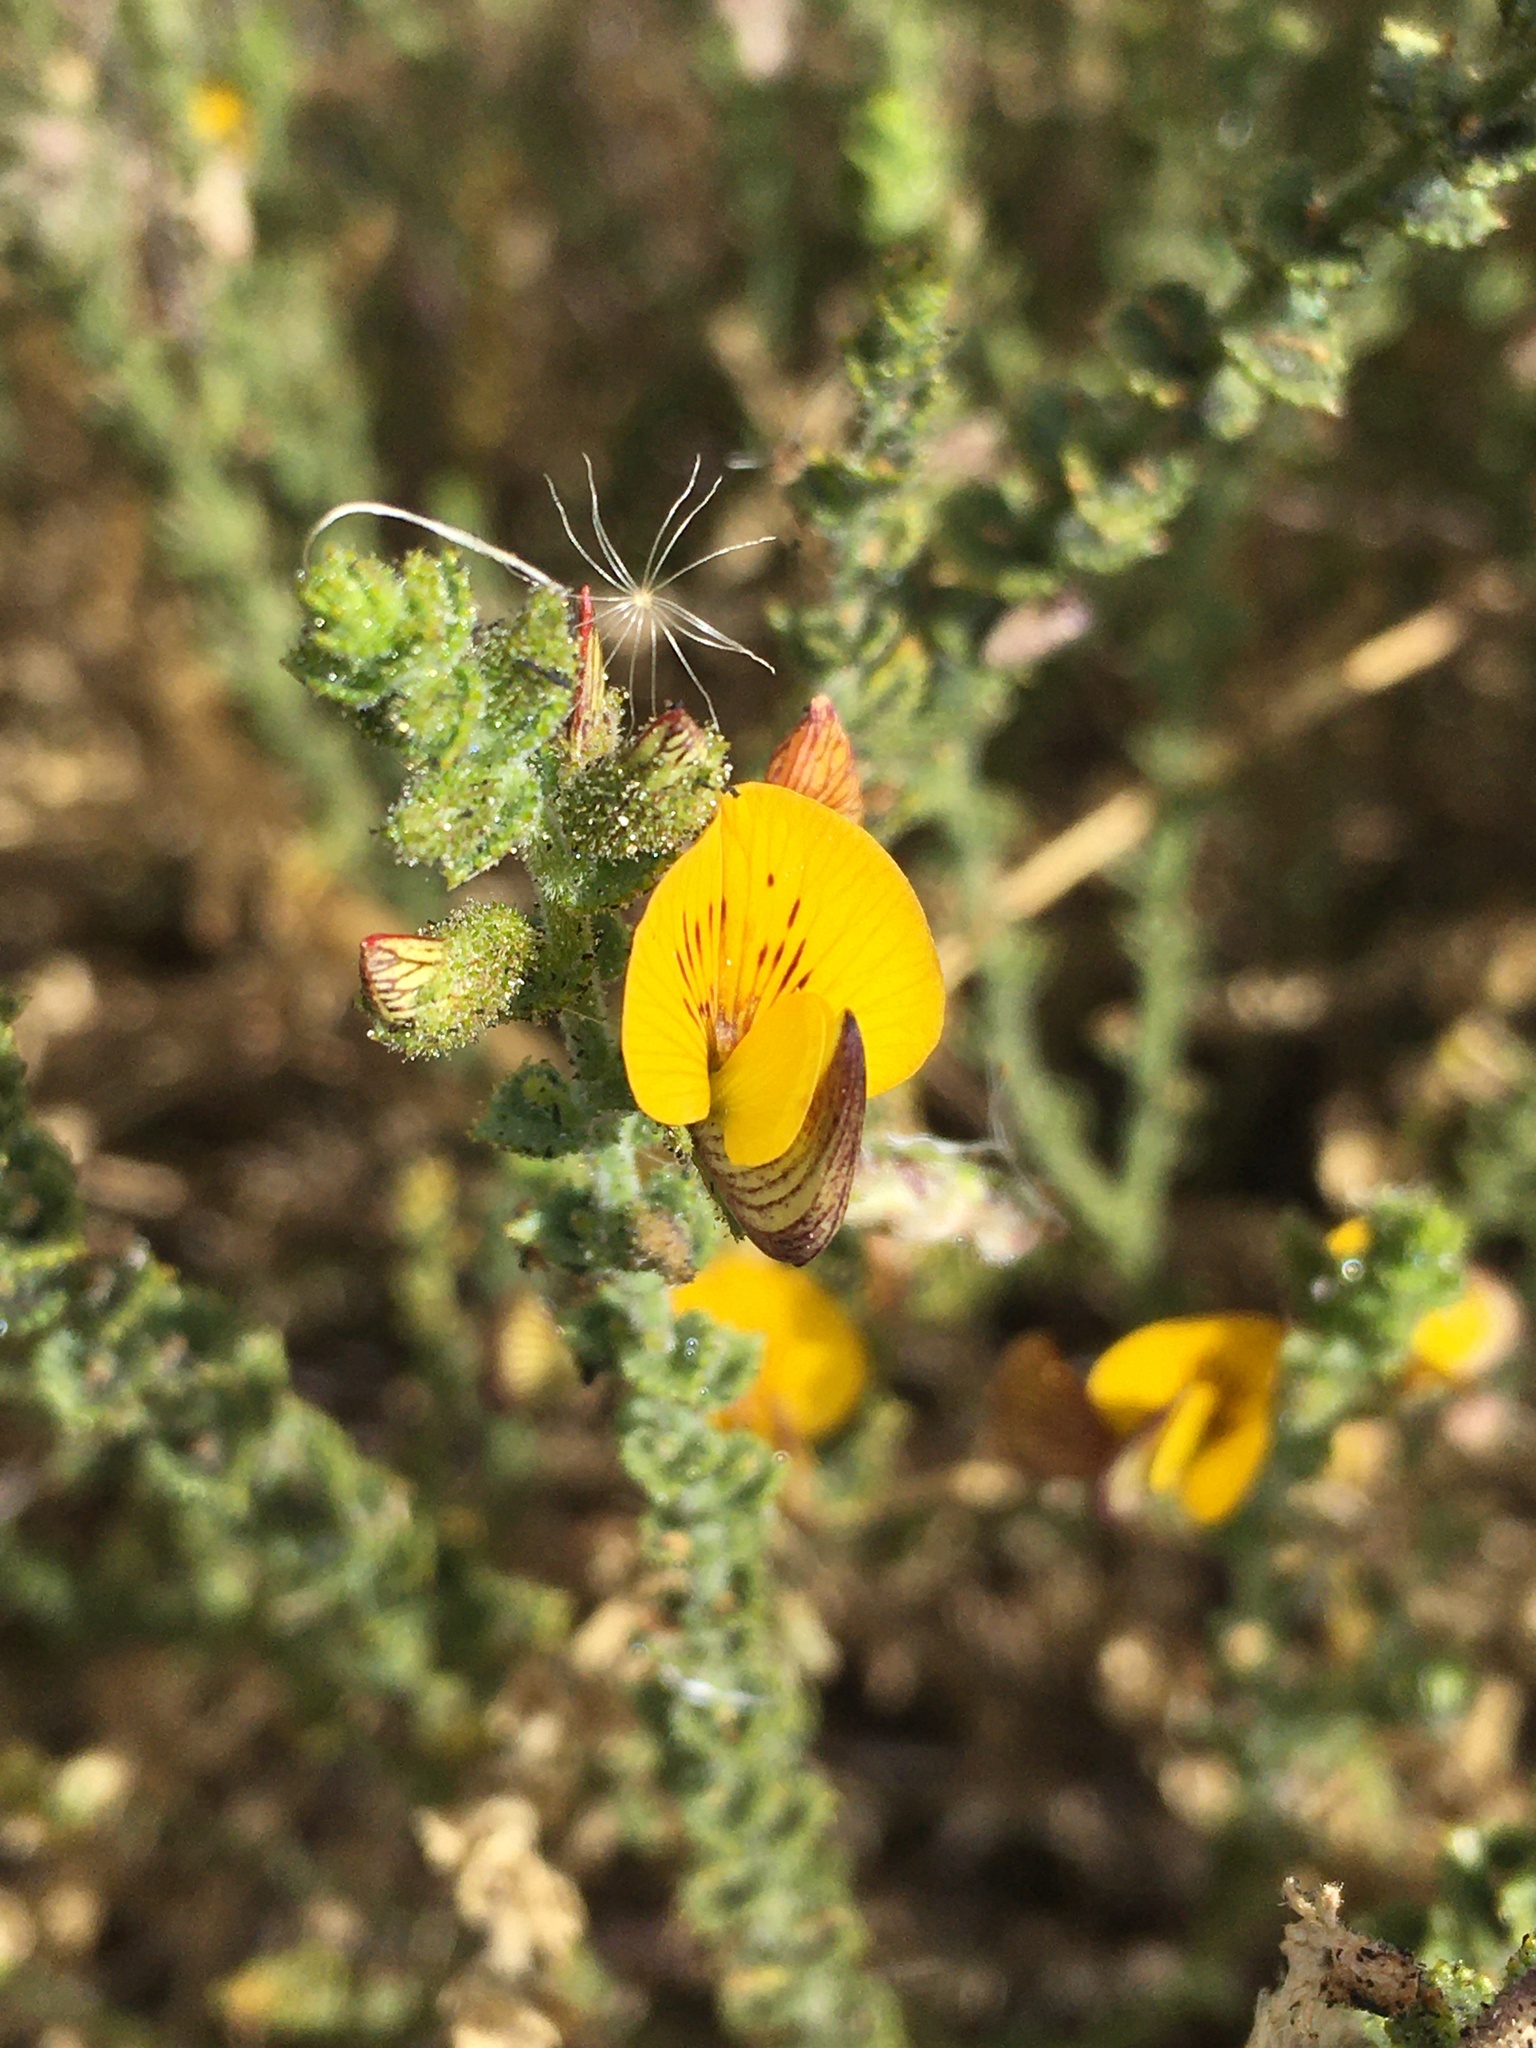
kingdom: Plantae
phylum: Tracheophyta
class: Magnoliopsida
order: Fabales
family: Fabaceae
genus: Adesmia
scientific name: Adesmia atacamensis
